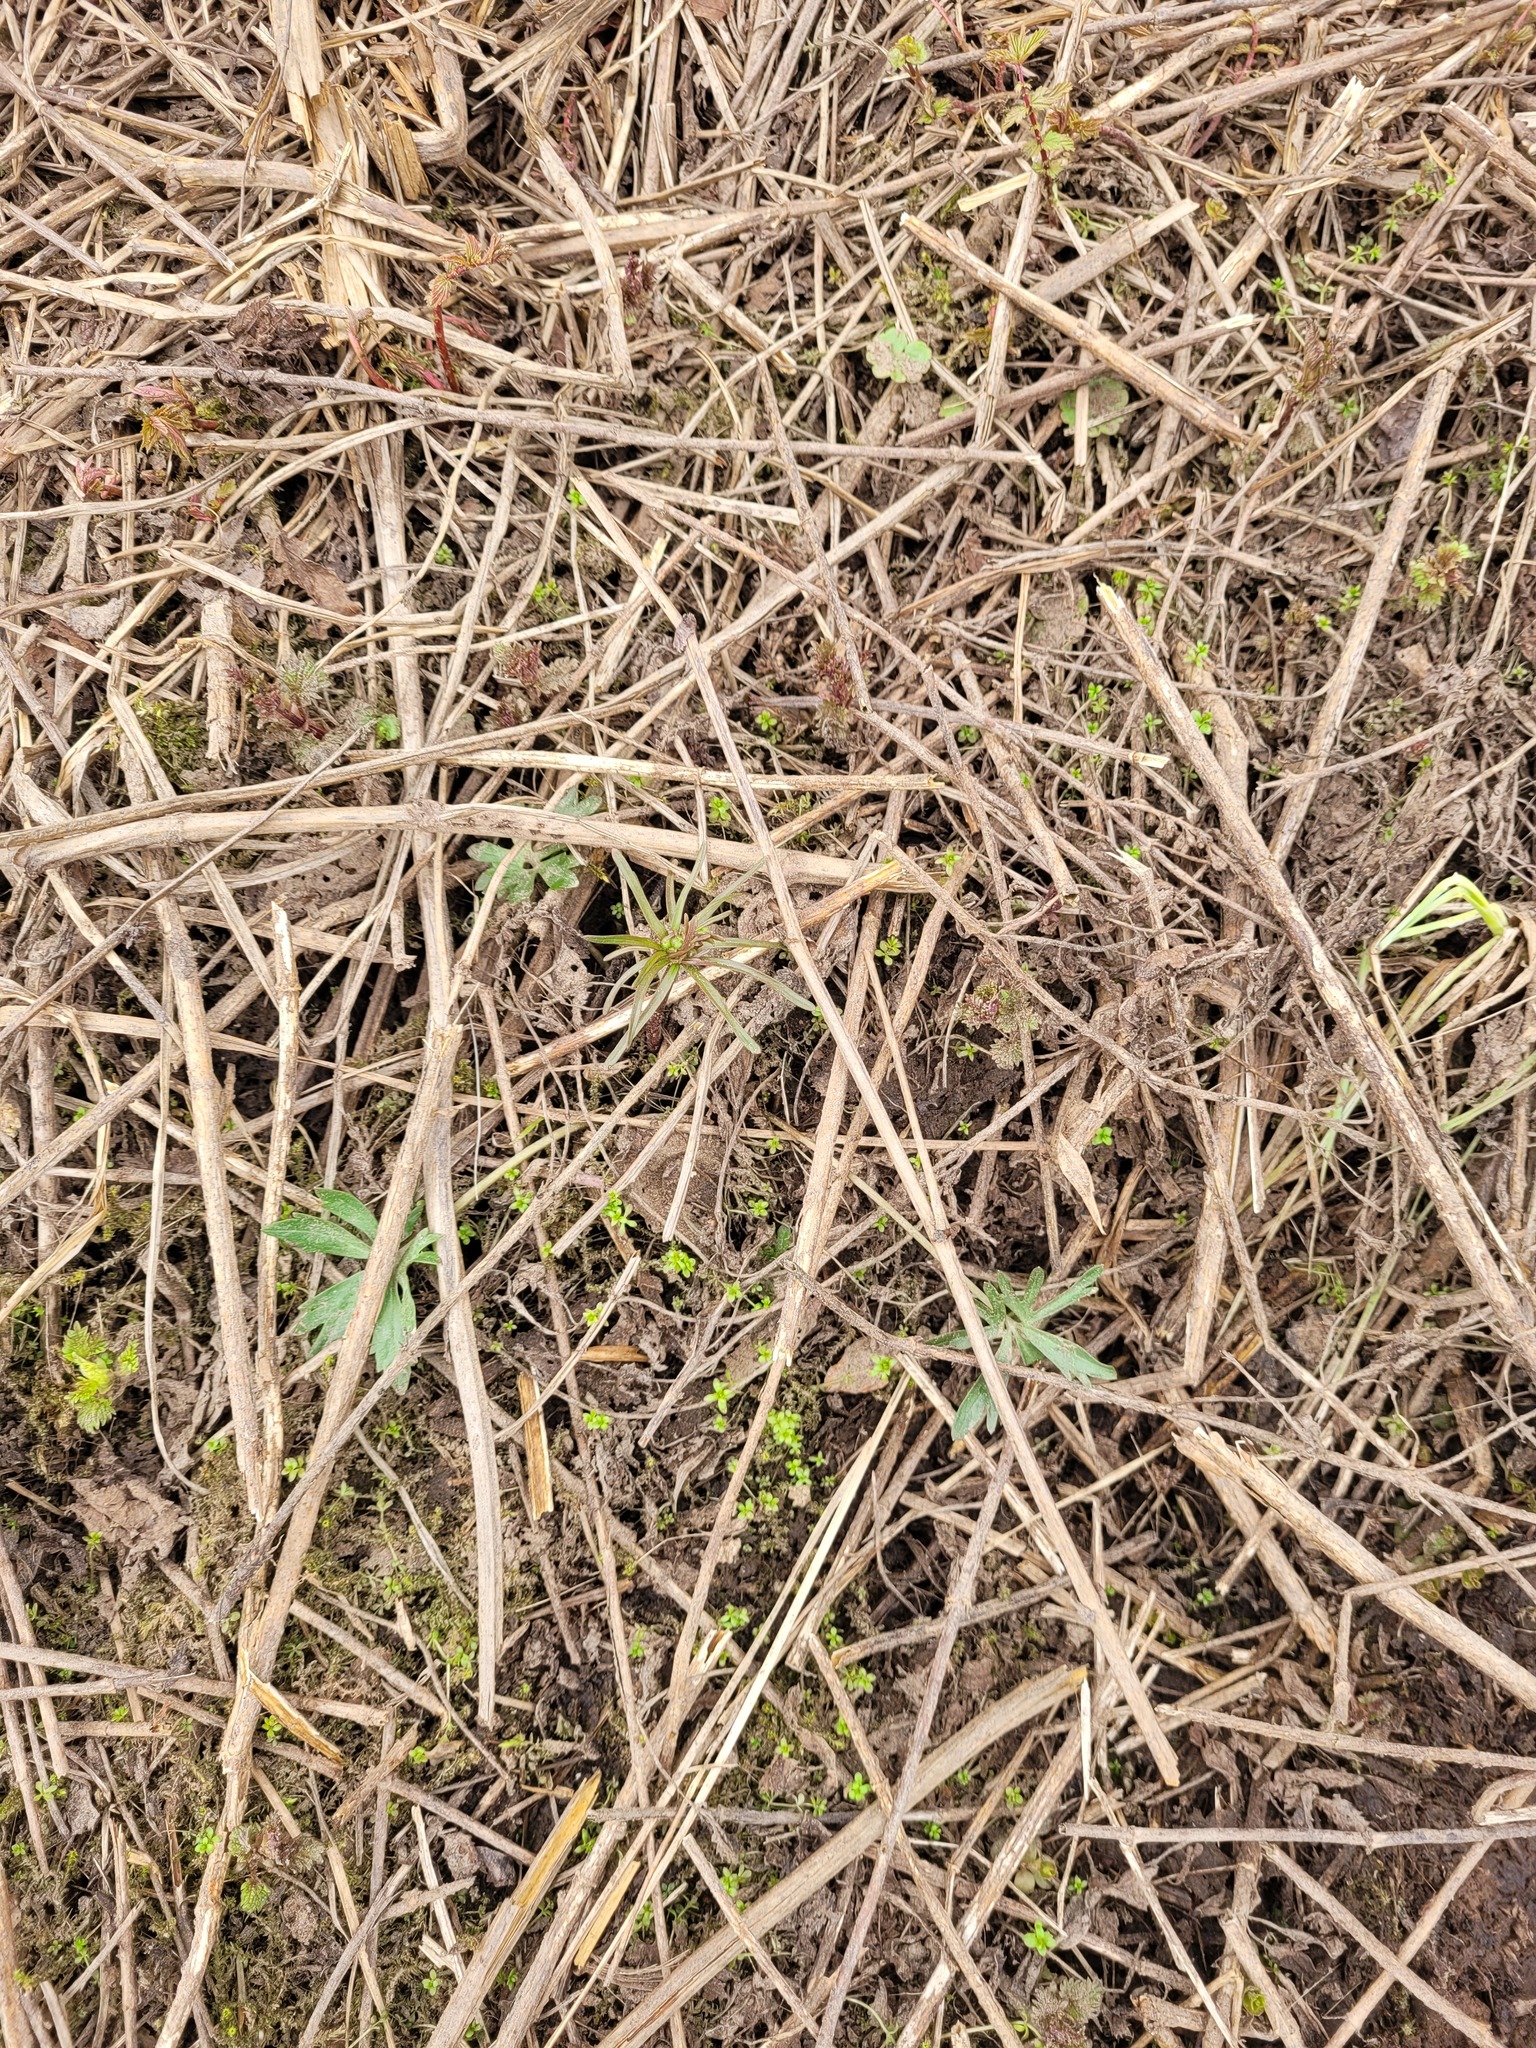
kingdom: Plantae
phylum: Tracheophyta
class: Magnoliopsida
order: Ranunculales
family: Ranunculaceae
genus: Ranunculus
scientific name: Ranunculus auricomus
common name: Goldilocks buttercup
